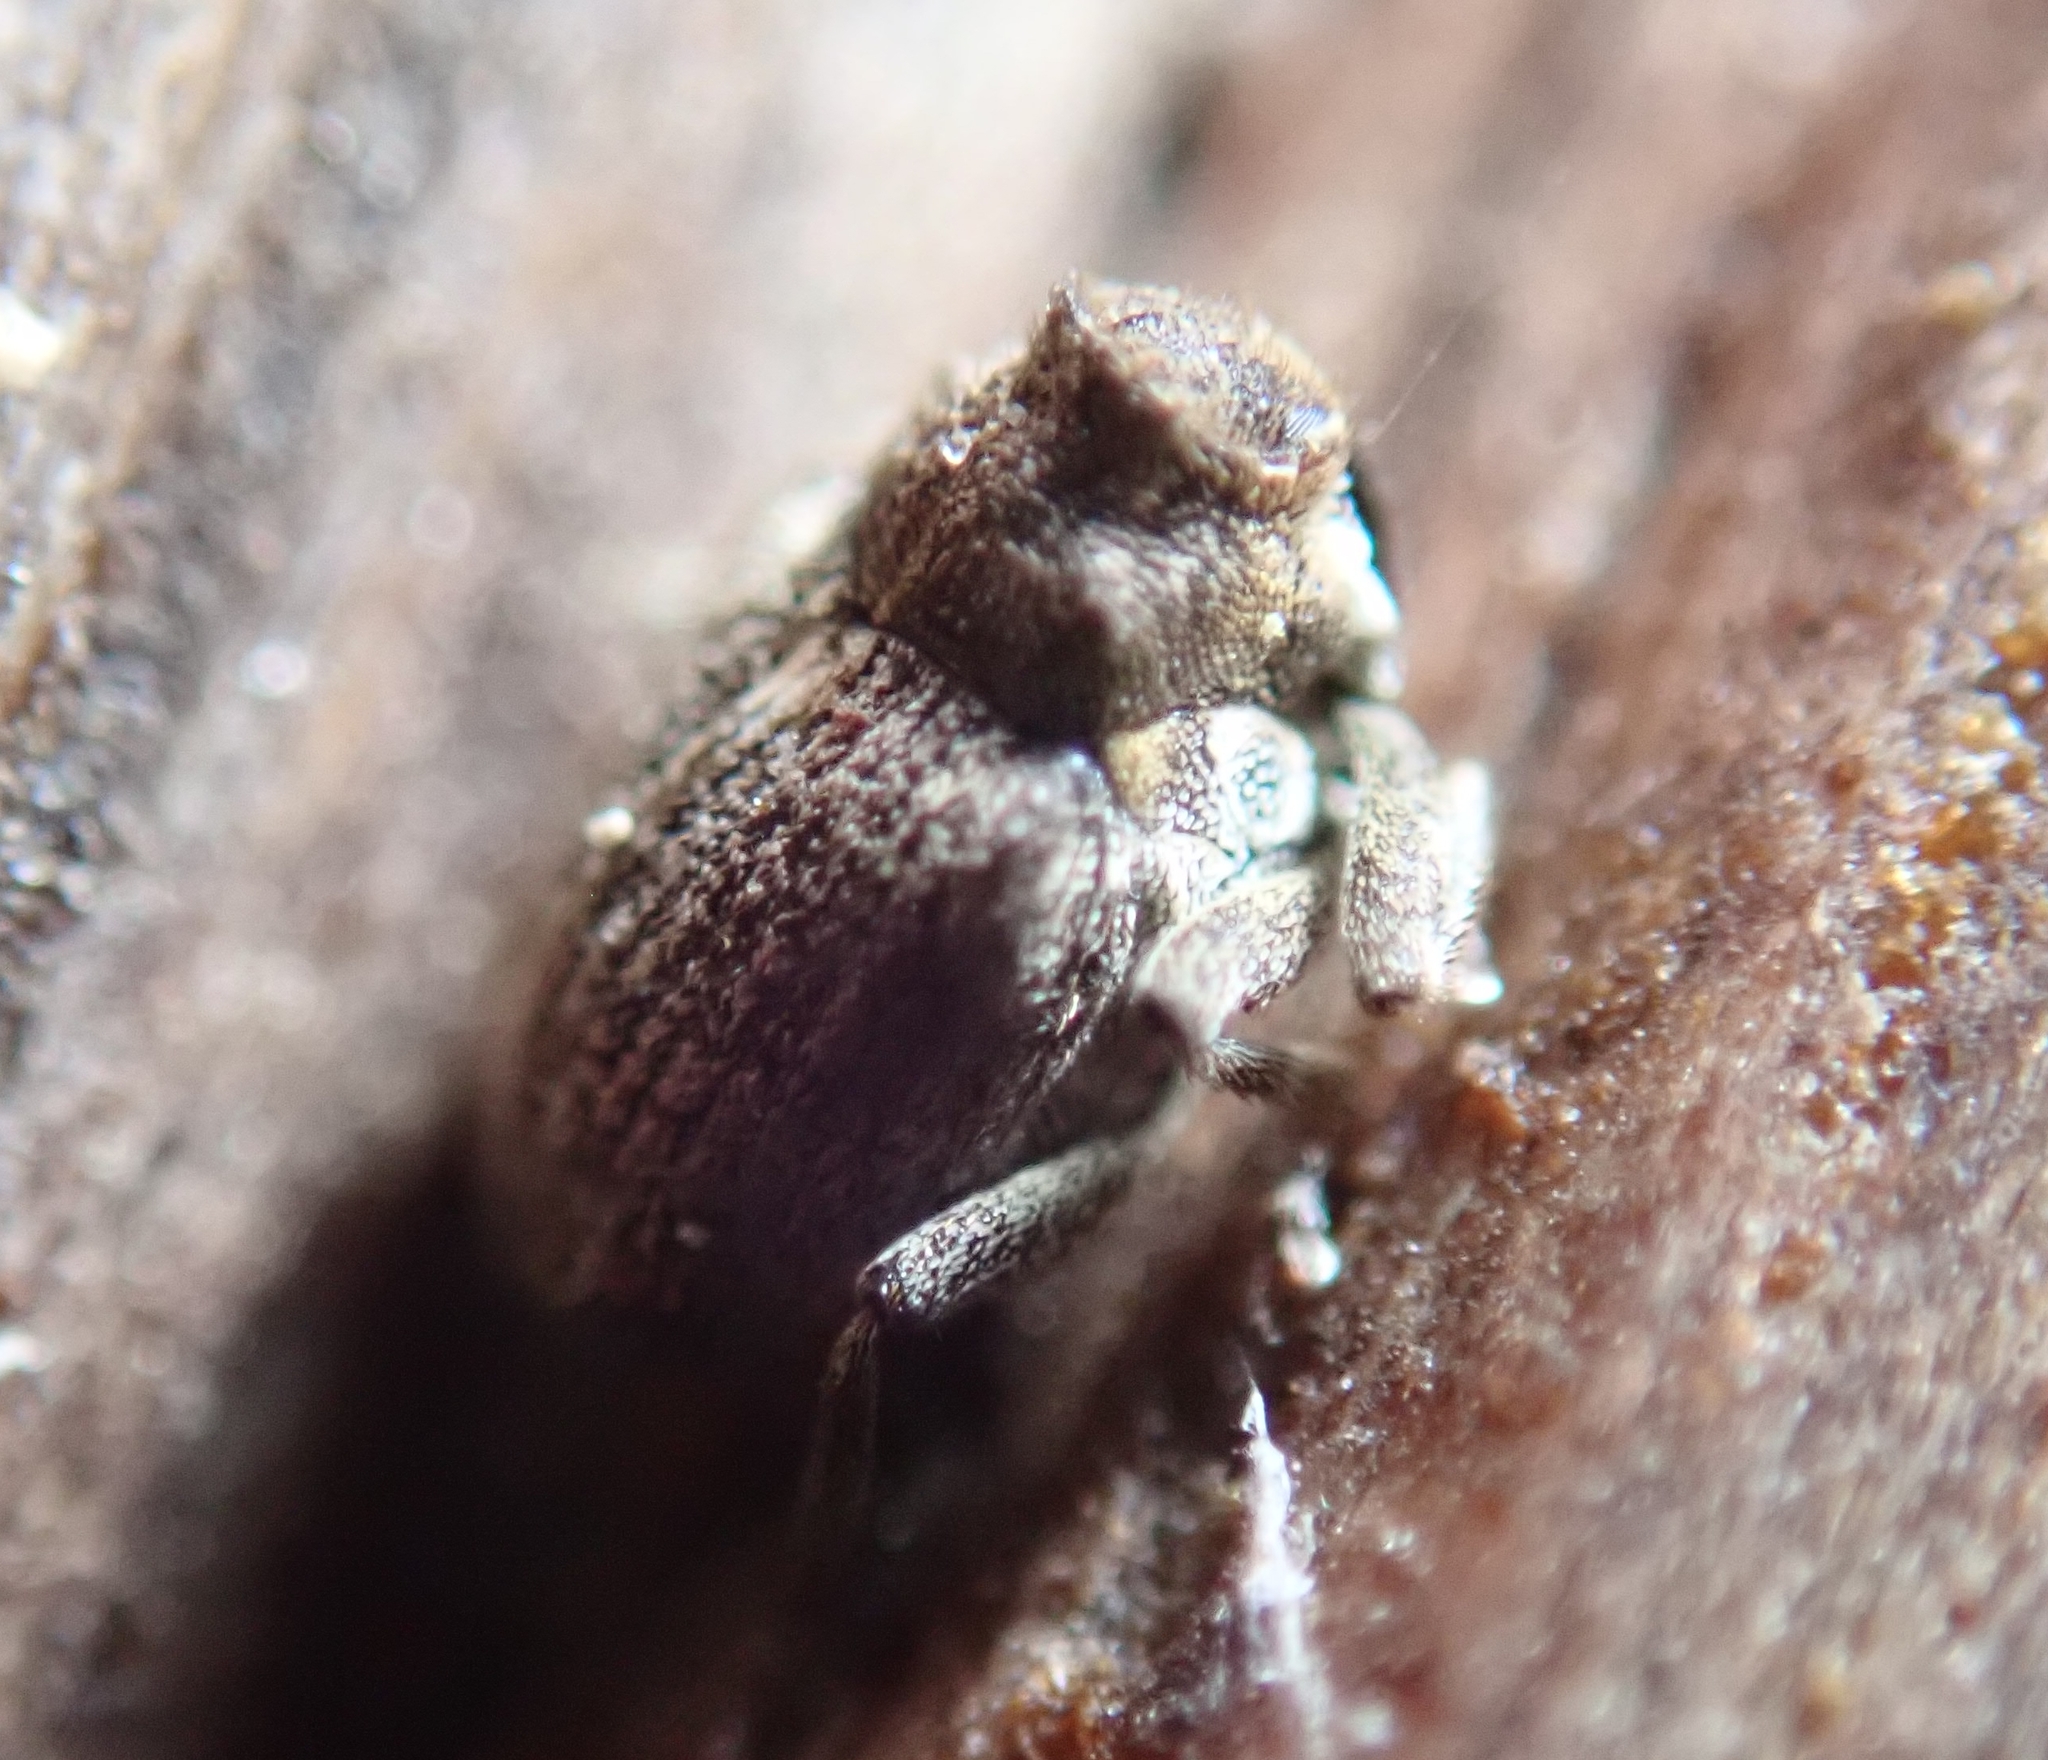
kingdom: Animalia
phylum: Arthropoda
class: Insecta
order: Coleoptera
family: Curculionidae
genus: Ceutorhynchus
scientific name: Ceutorhynchus pallidactylus
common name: Cabbage stem weavil
